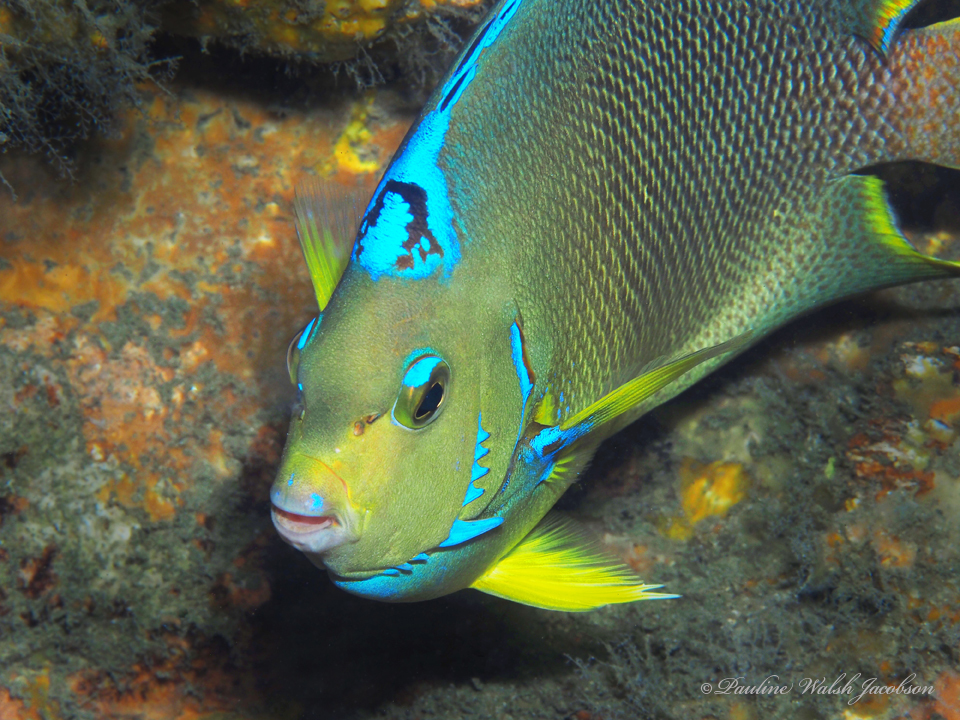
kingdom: Animalia
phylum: Chordata
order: Perciformes
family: Pomacanthidae
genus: Holacanthus
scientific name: Holacanthus ciliaris
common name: Queen angelfish
